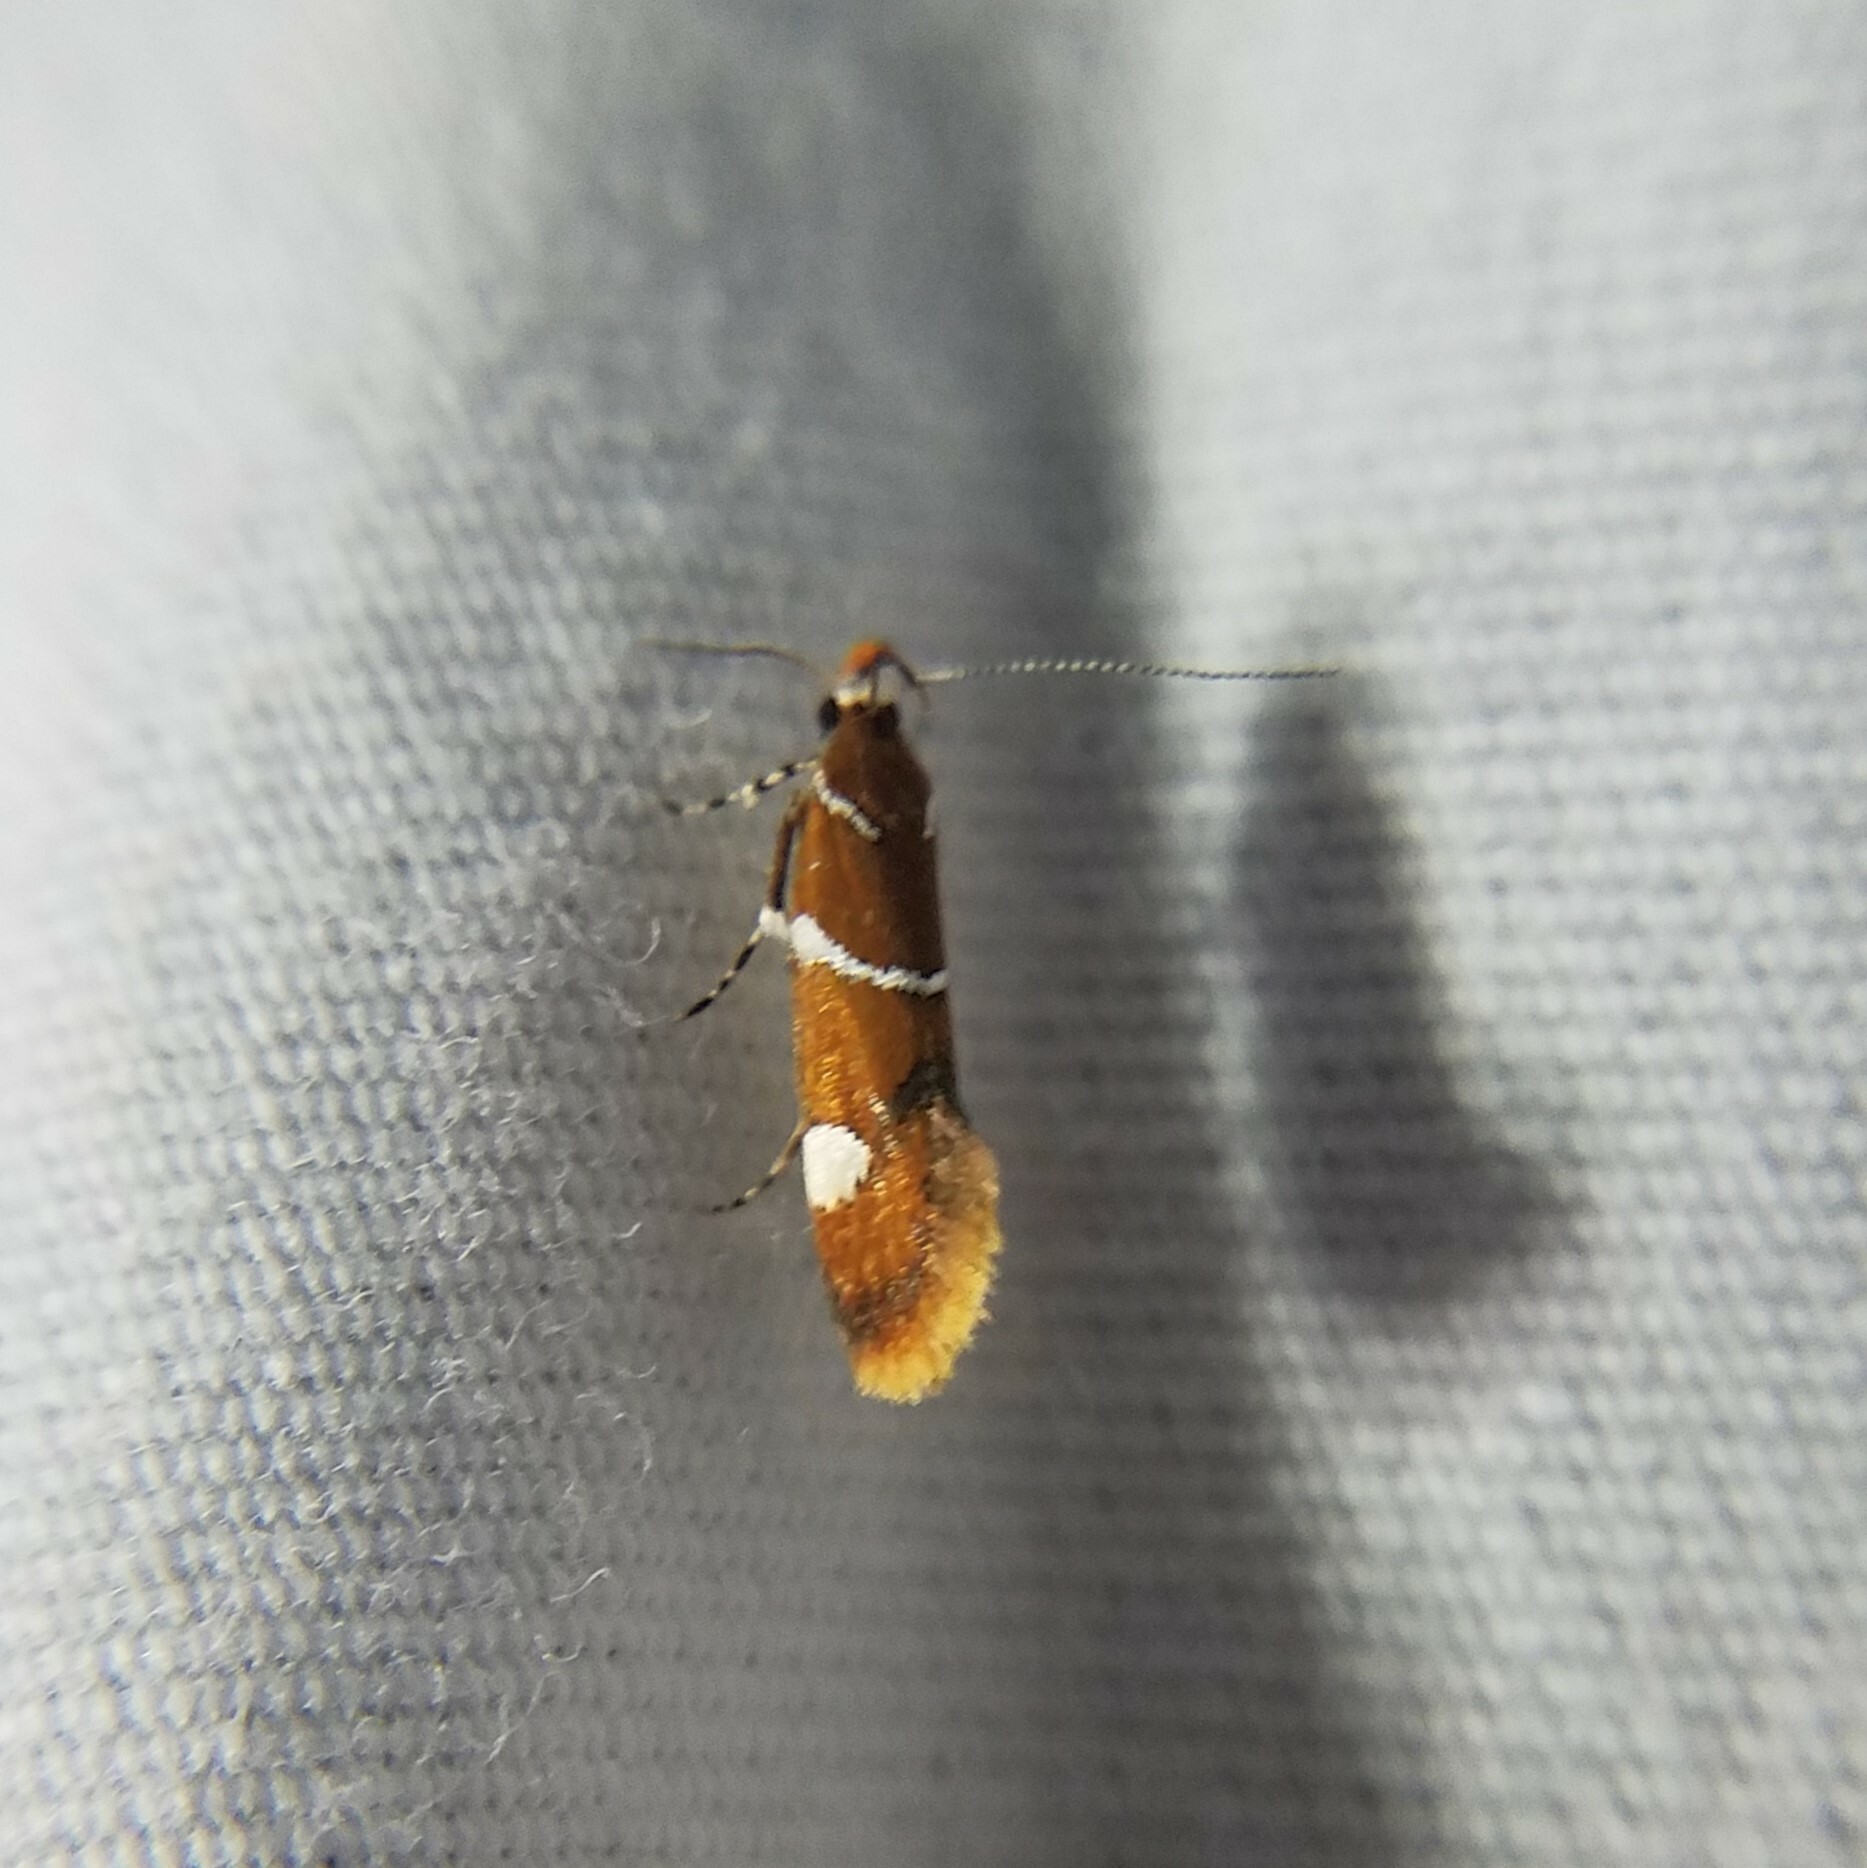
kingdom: Animalia
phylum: Arthropoda
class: Insecta
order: Lepidoptera
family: Oecophoridae
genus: Promalactis
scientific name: Promalactis suzukiella
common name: Moth
